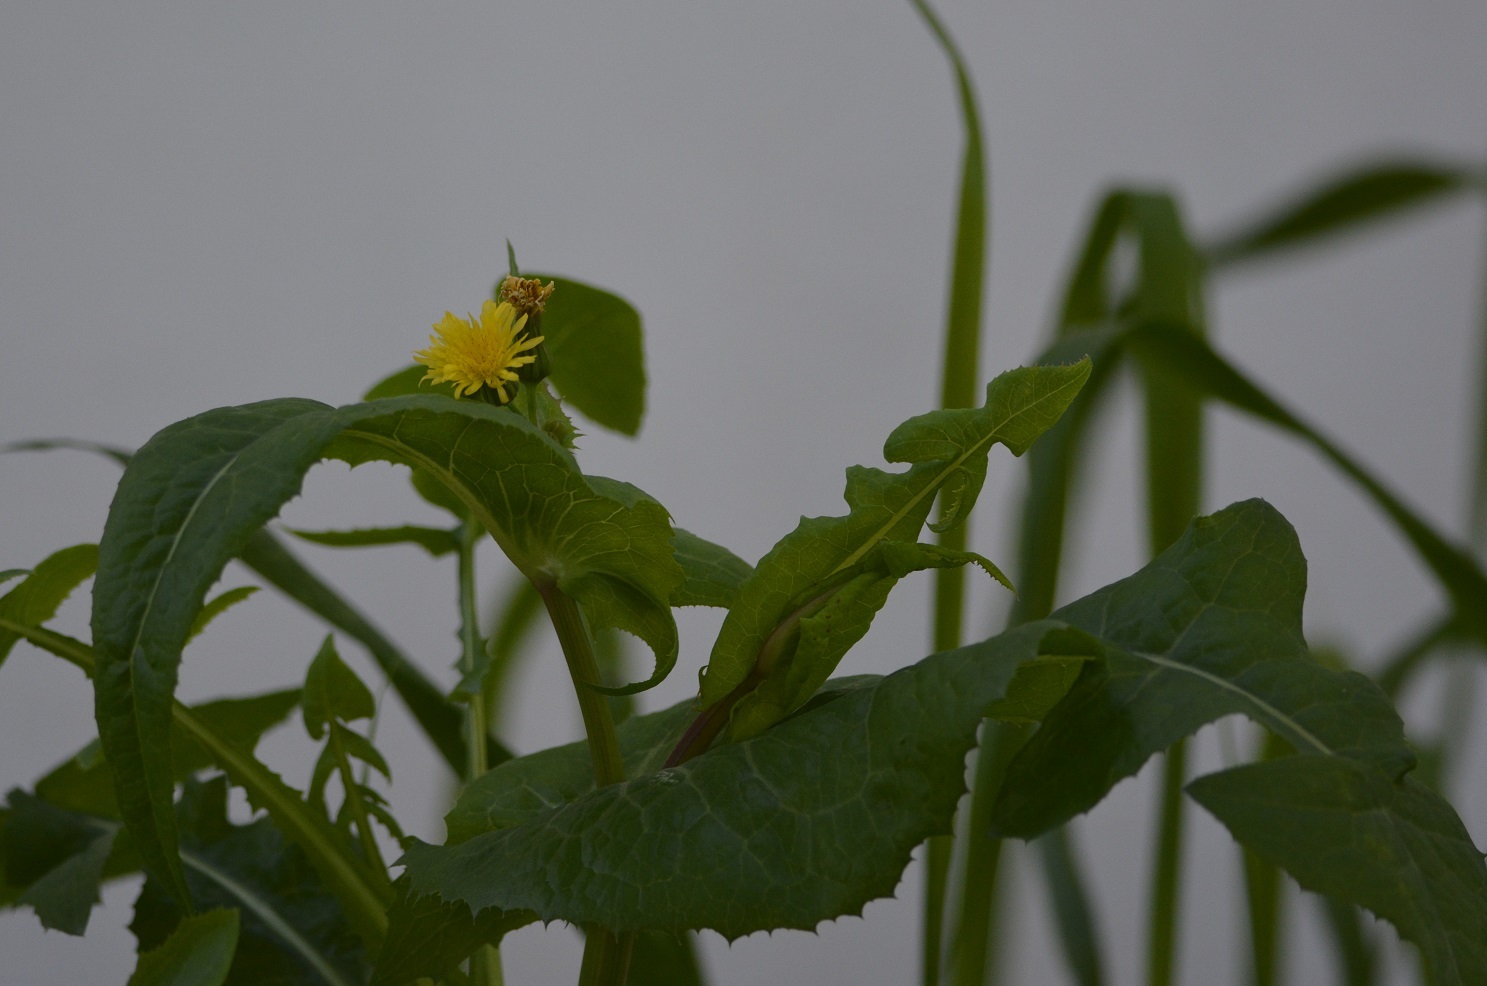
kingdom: Plantae
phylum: Tracheophyta
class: Magnoliopsida
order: Asterales
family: Asteraceae
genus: Sonchus
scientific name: Sonchus oleraceus
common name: Common sowthistle
